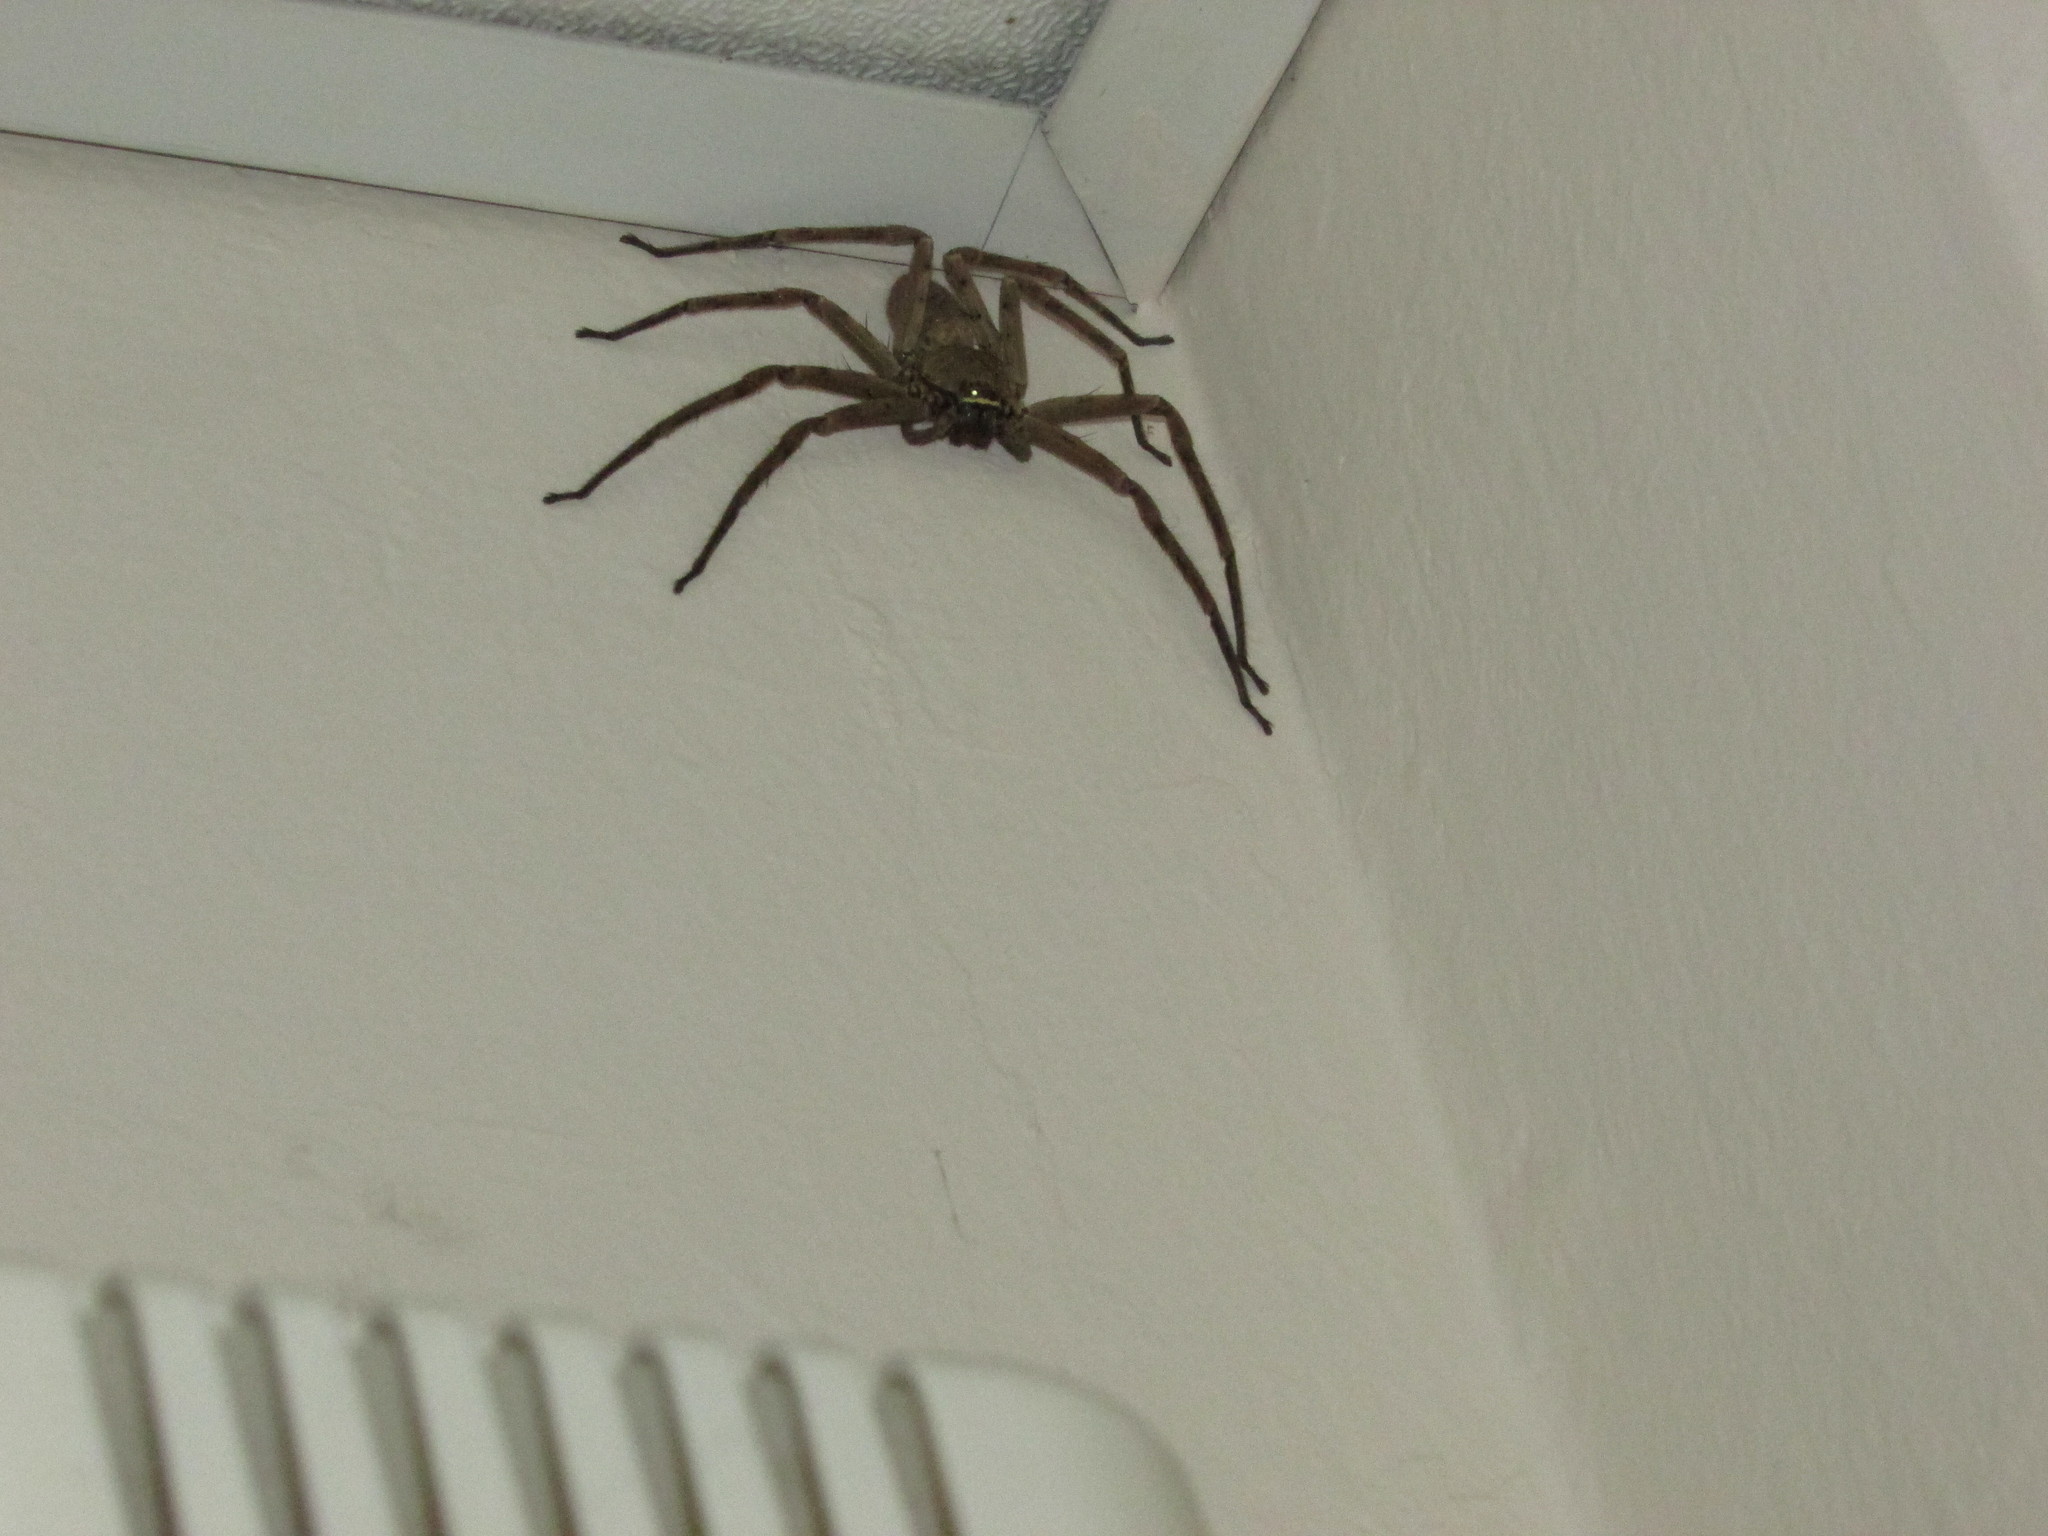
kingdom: Animalia
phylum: Arthropoda
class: Arachnida
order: Araneae
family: Sparassidae
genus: Heteropoda
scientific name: Heteropoda venatoria
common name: Huntsman spider
